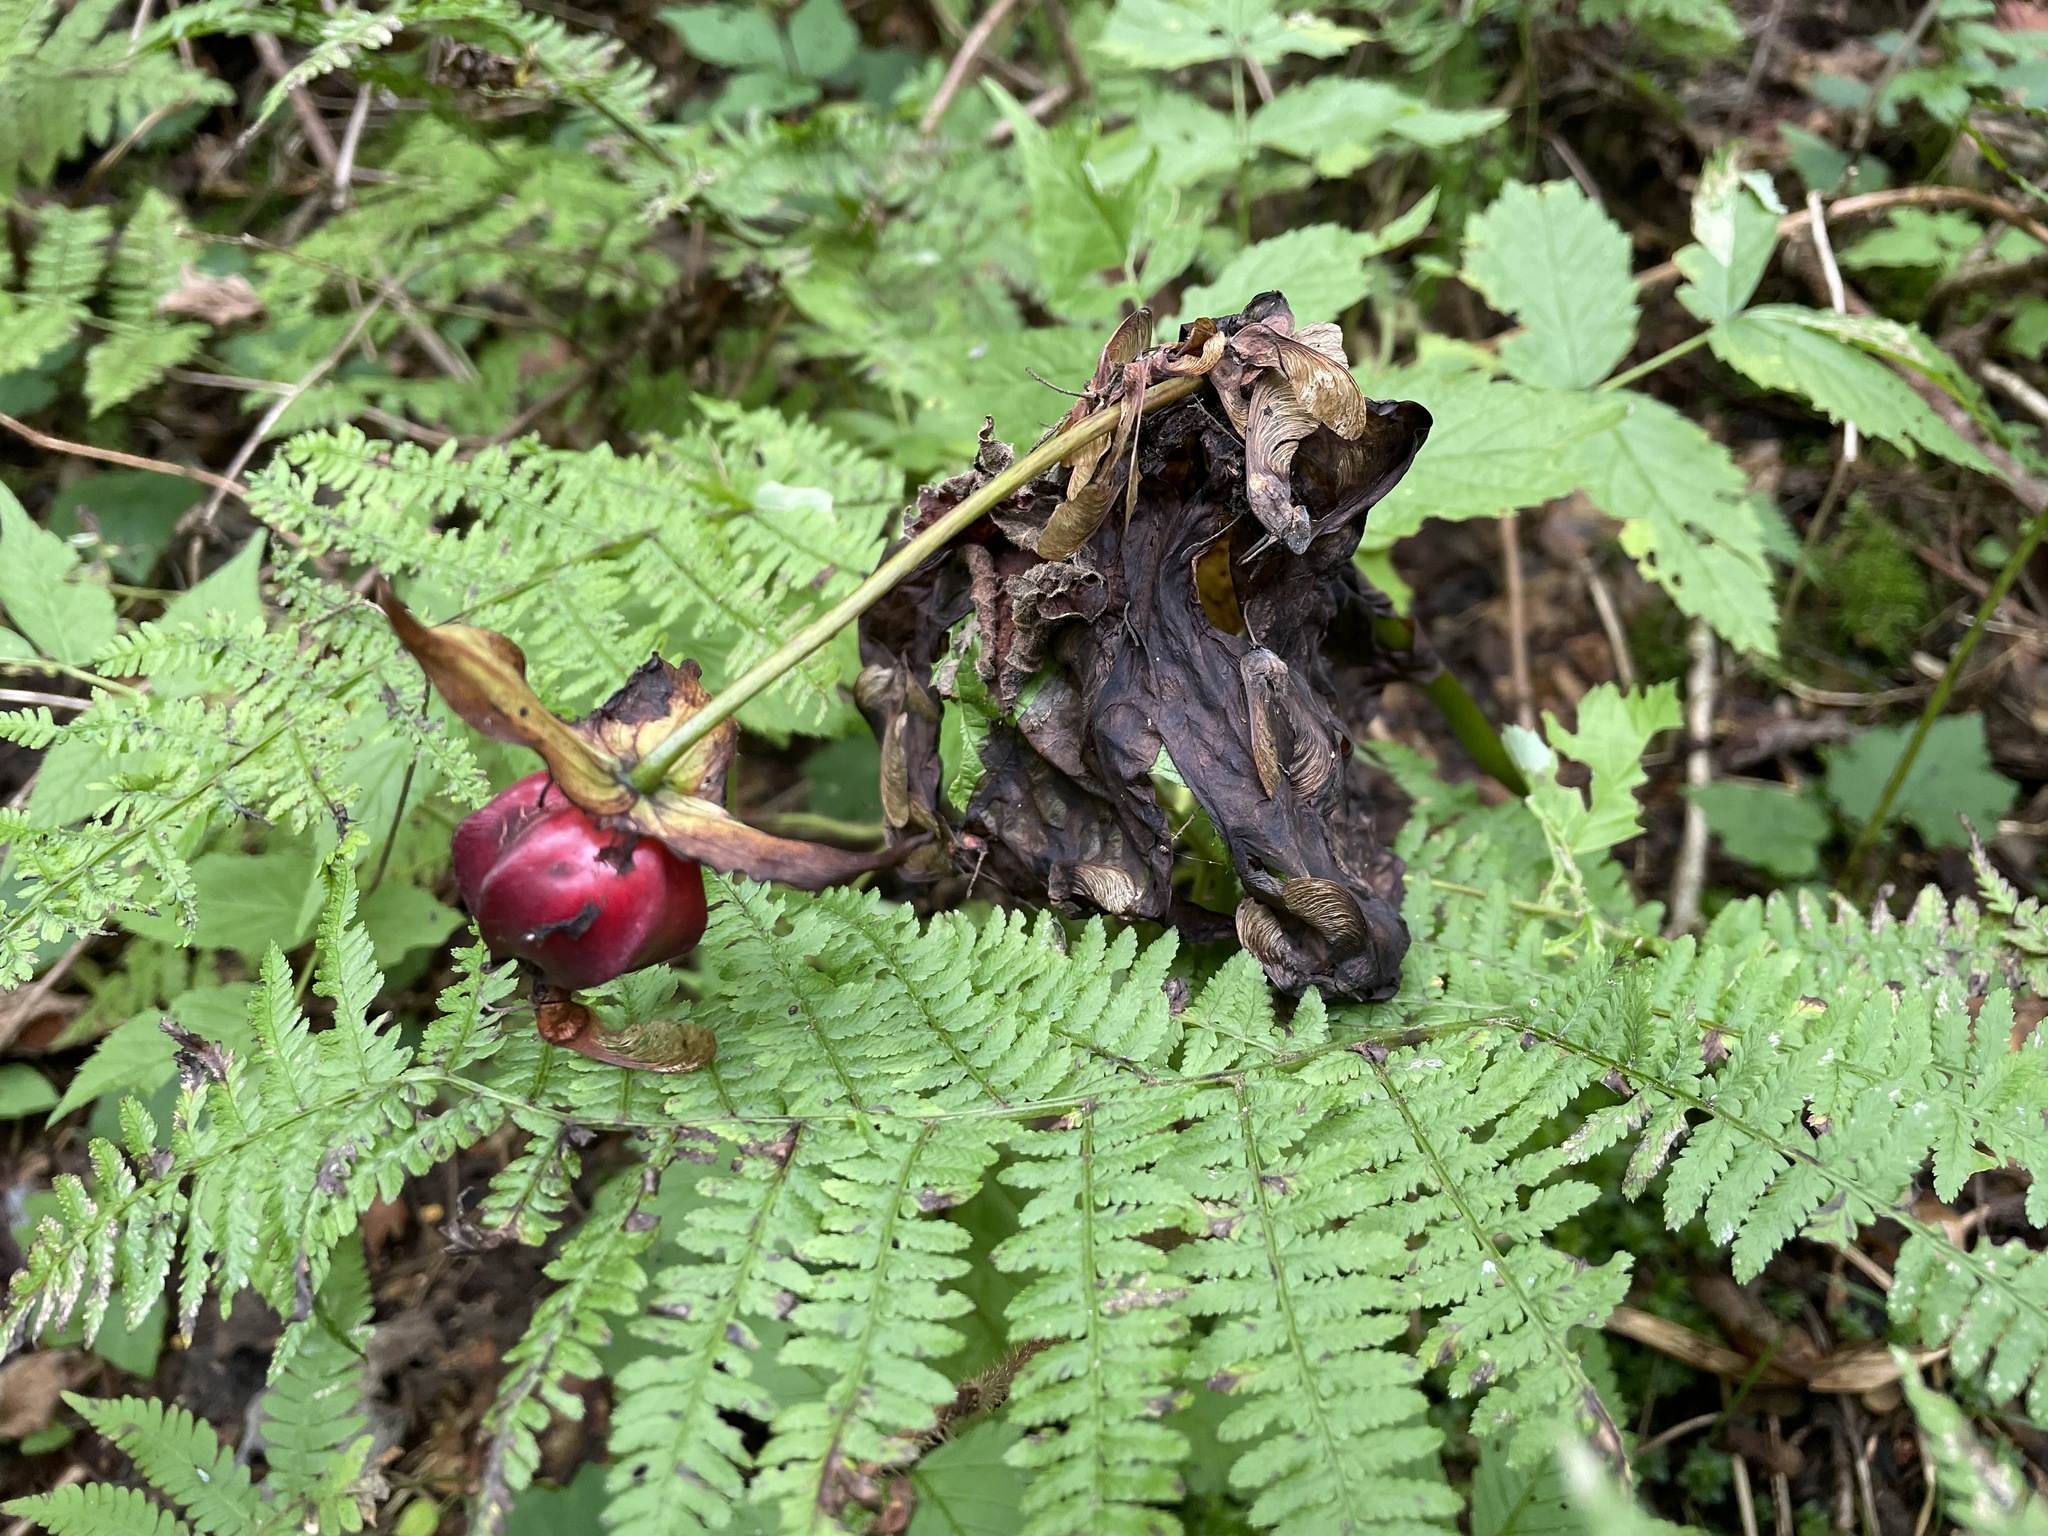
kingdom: Plantae
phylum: Tracheophyta
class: Liliopsida
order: Liliales
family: Melanthiaceae
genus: Trillium
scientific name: Trillium erectum
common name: Purple trillium
